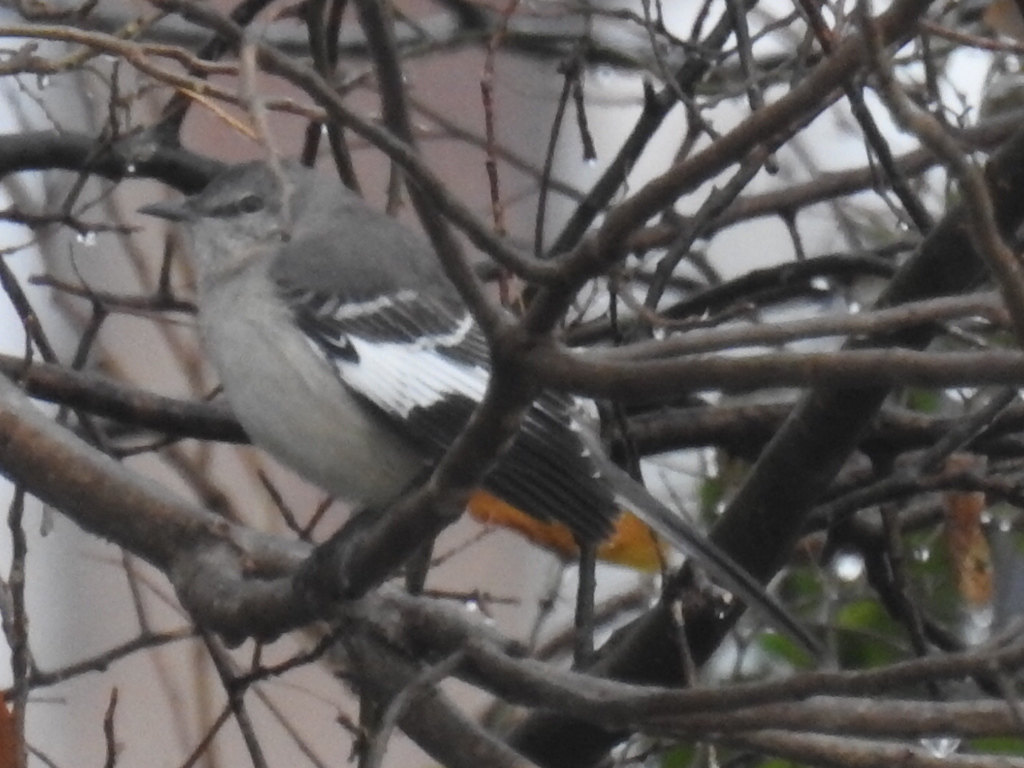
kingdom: Animalia
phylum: Chordata
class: Aves
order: Passeriformes
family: Mimidae
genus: Mimus
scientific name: Mimus polyglottos
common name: Northern mockingbird
